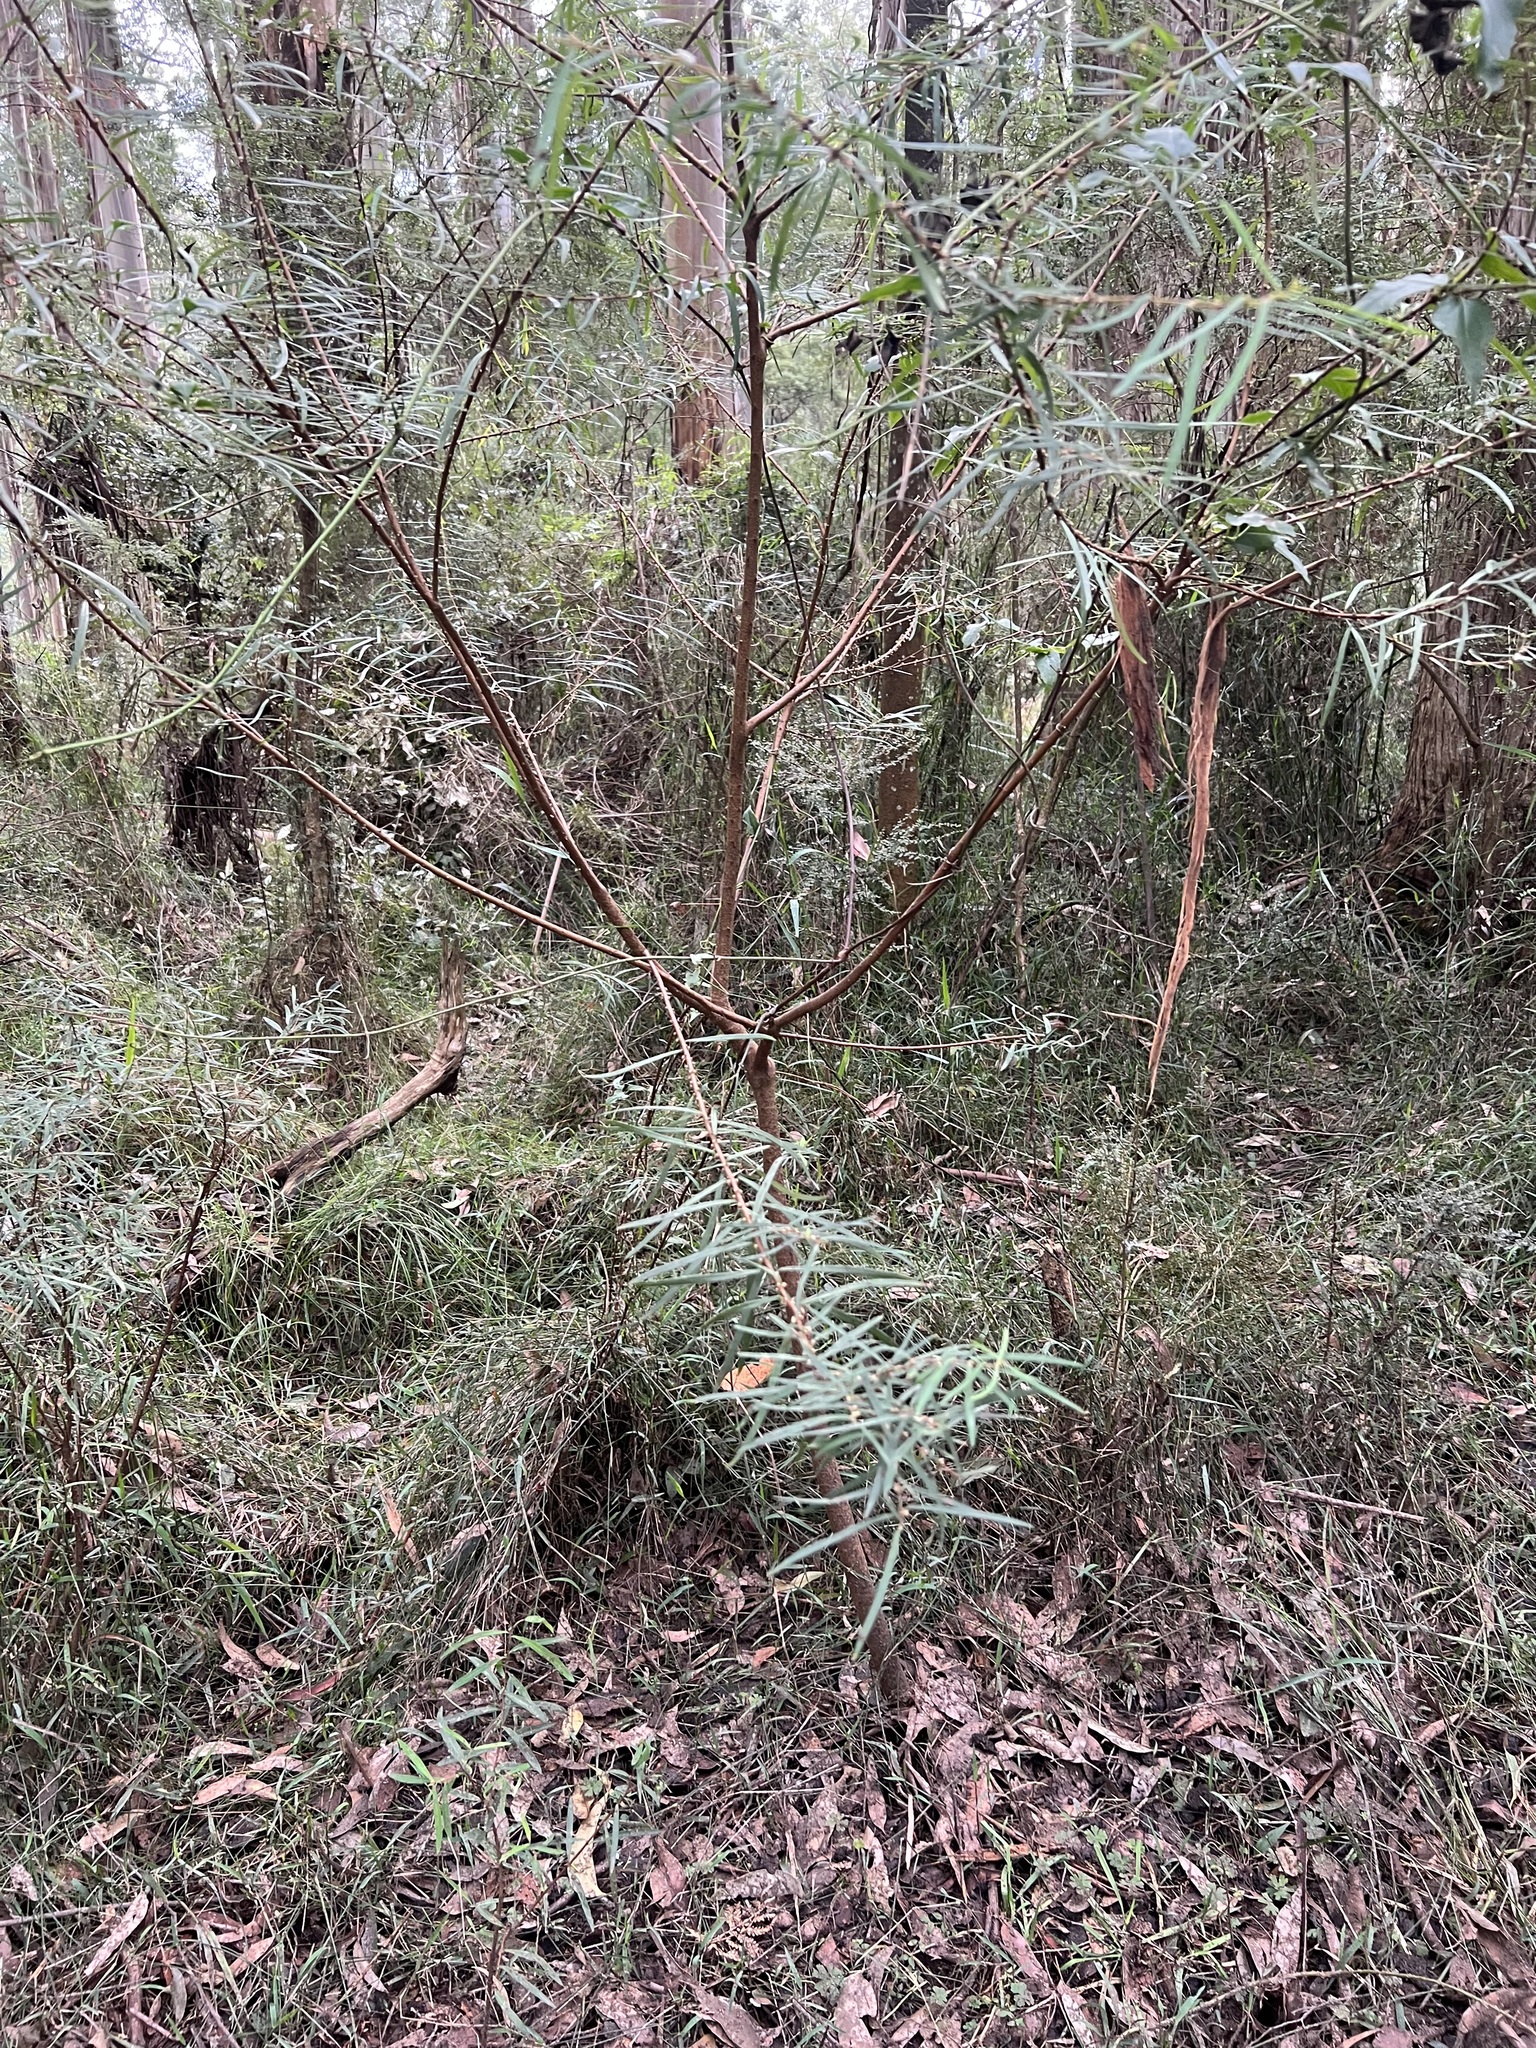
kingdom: Plantae
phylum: Tracheophyta
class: Magnoliopsida
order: Malvales
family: Thymelaeaceae
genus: Pimelea
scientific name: Pimelea axiflora
